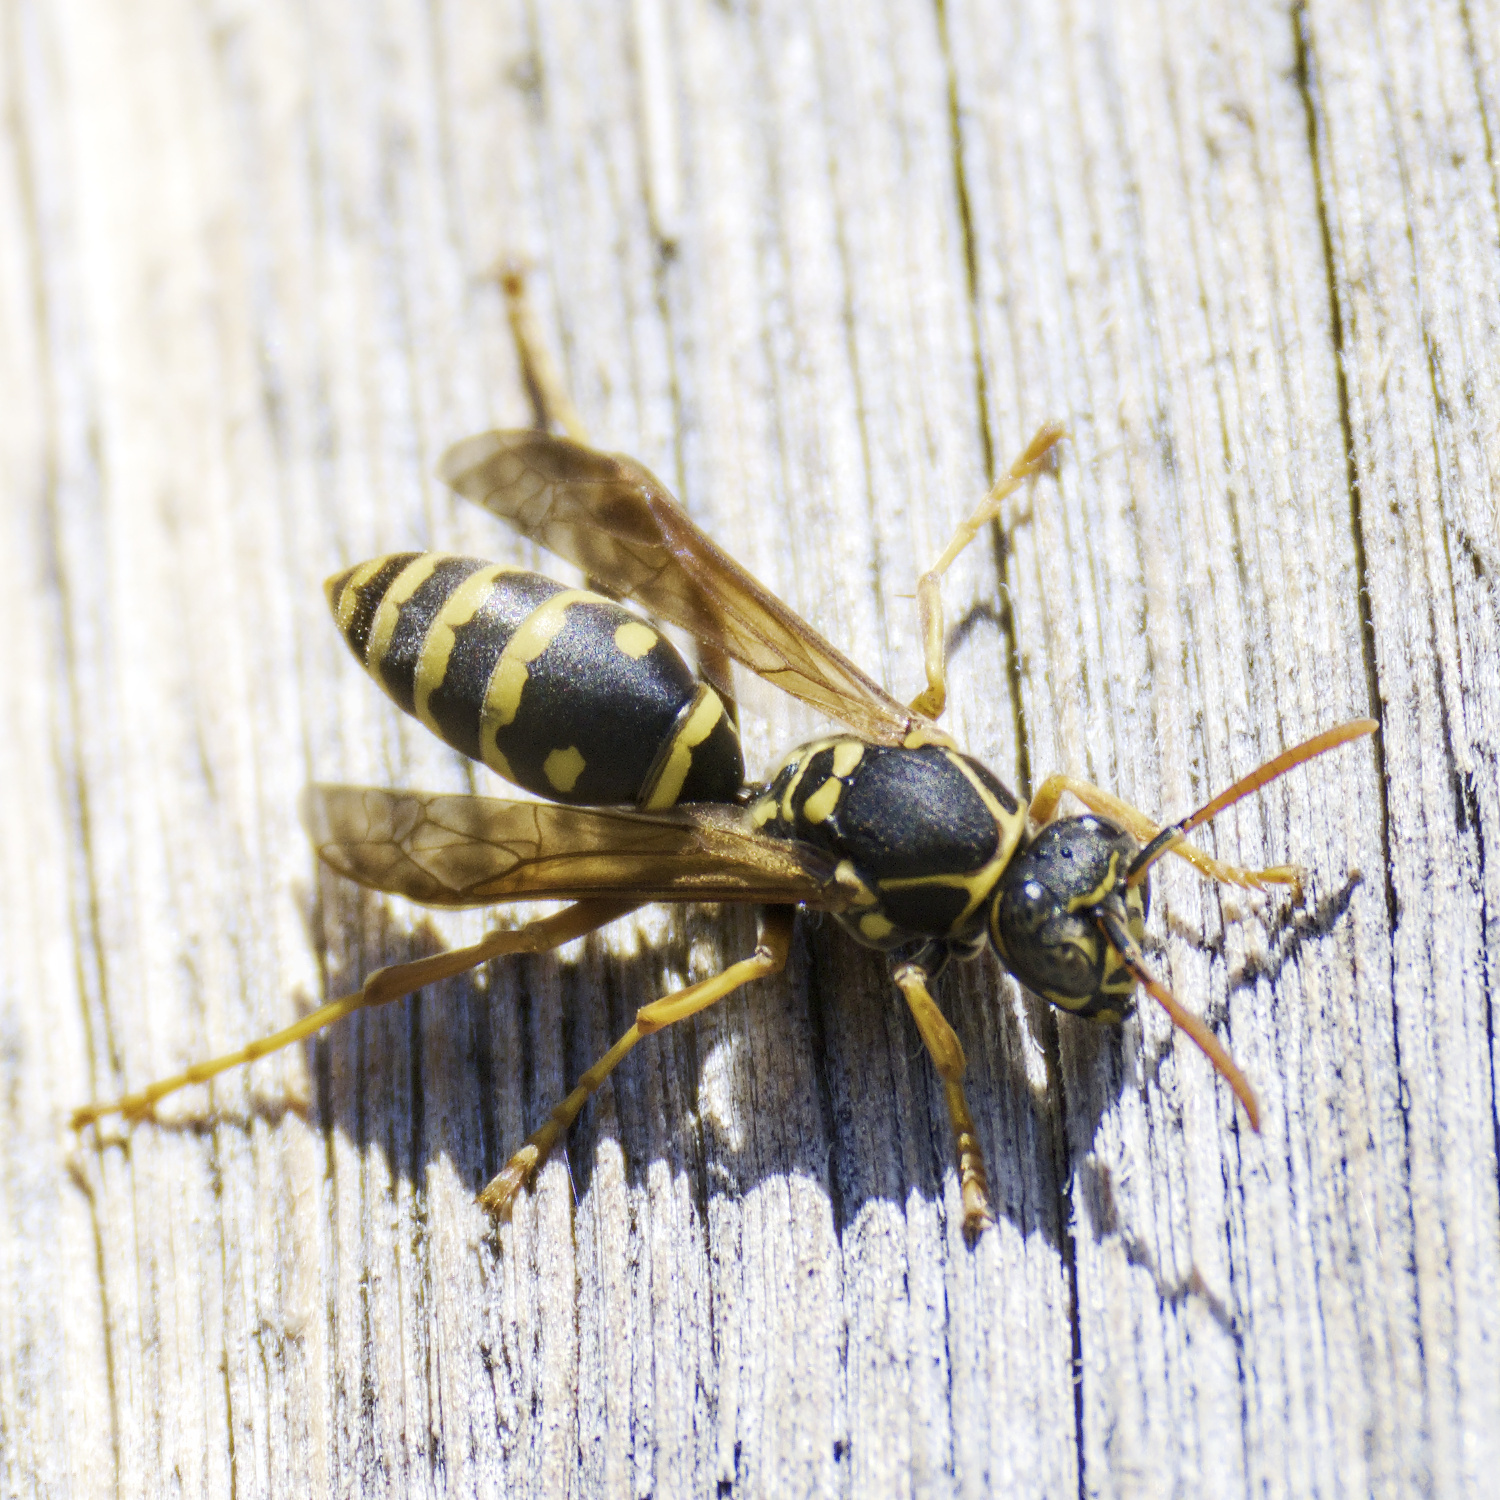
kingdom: Animalia
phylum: Arthropoda
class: Insecta
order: Hymenoptera
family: Eumenidae
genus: Polistes
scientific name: Polistes chinensis
